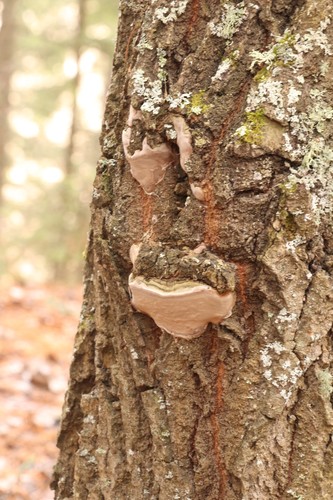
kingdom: Fungi
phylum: Basidiomycota
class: Agaricomycetes
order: Hymenochaetales
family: Hymenochaetaceae
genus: Phellinus
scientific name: Phellinus tremulae
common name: Aspen bracket
